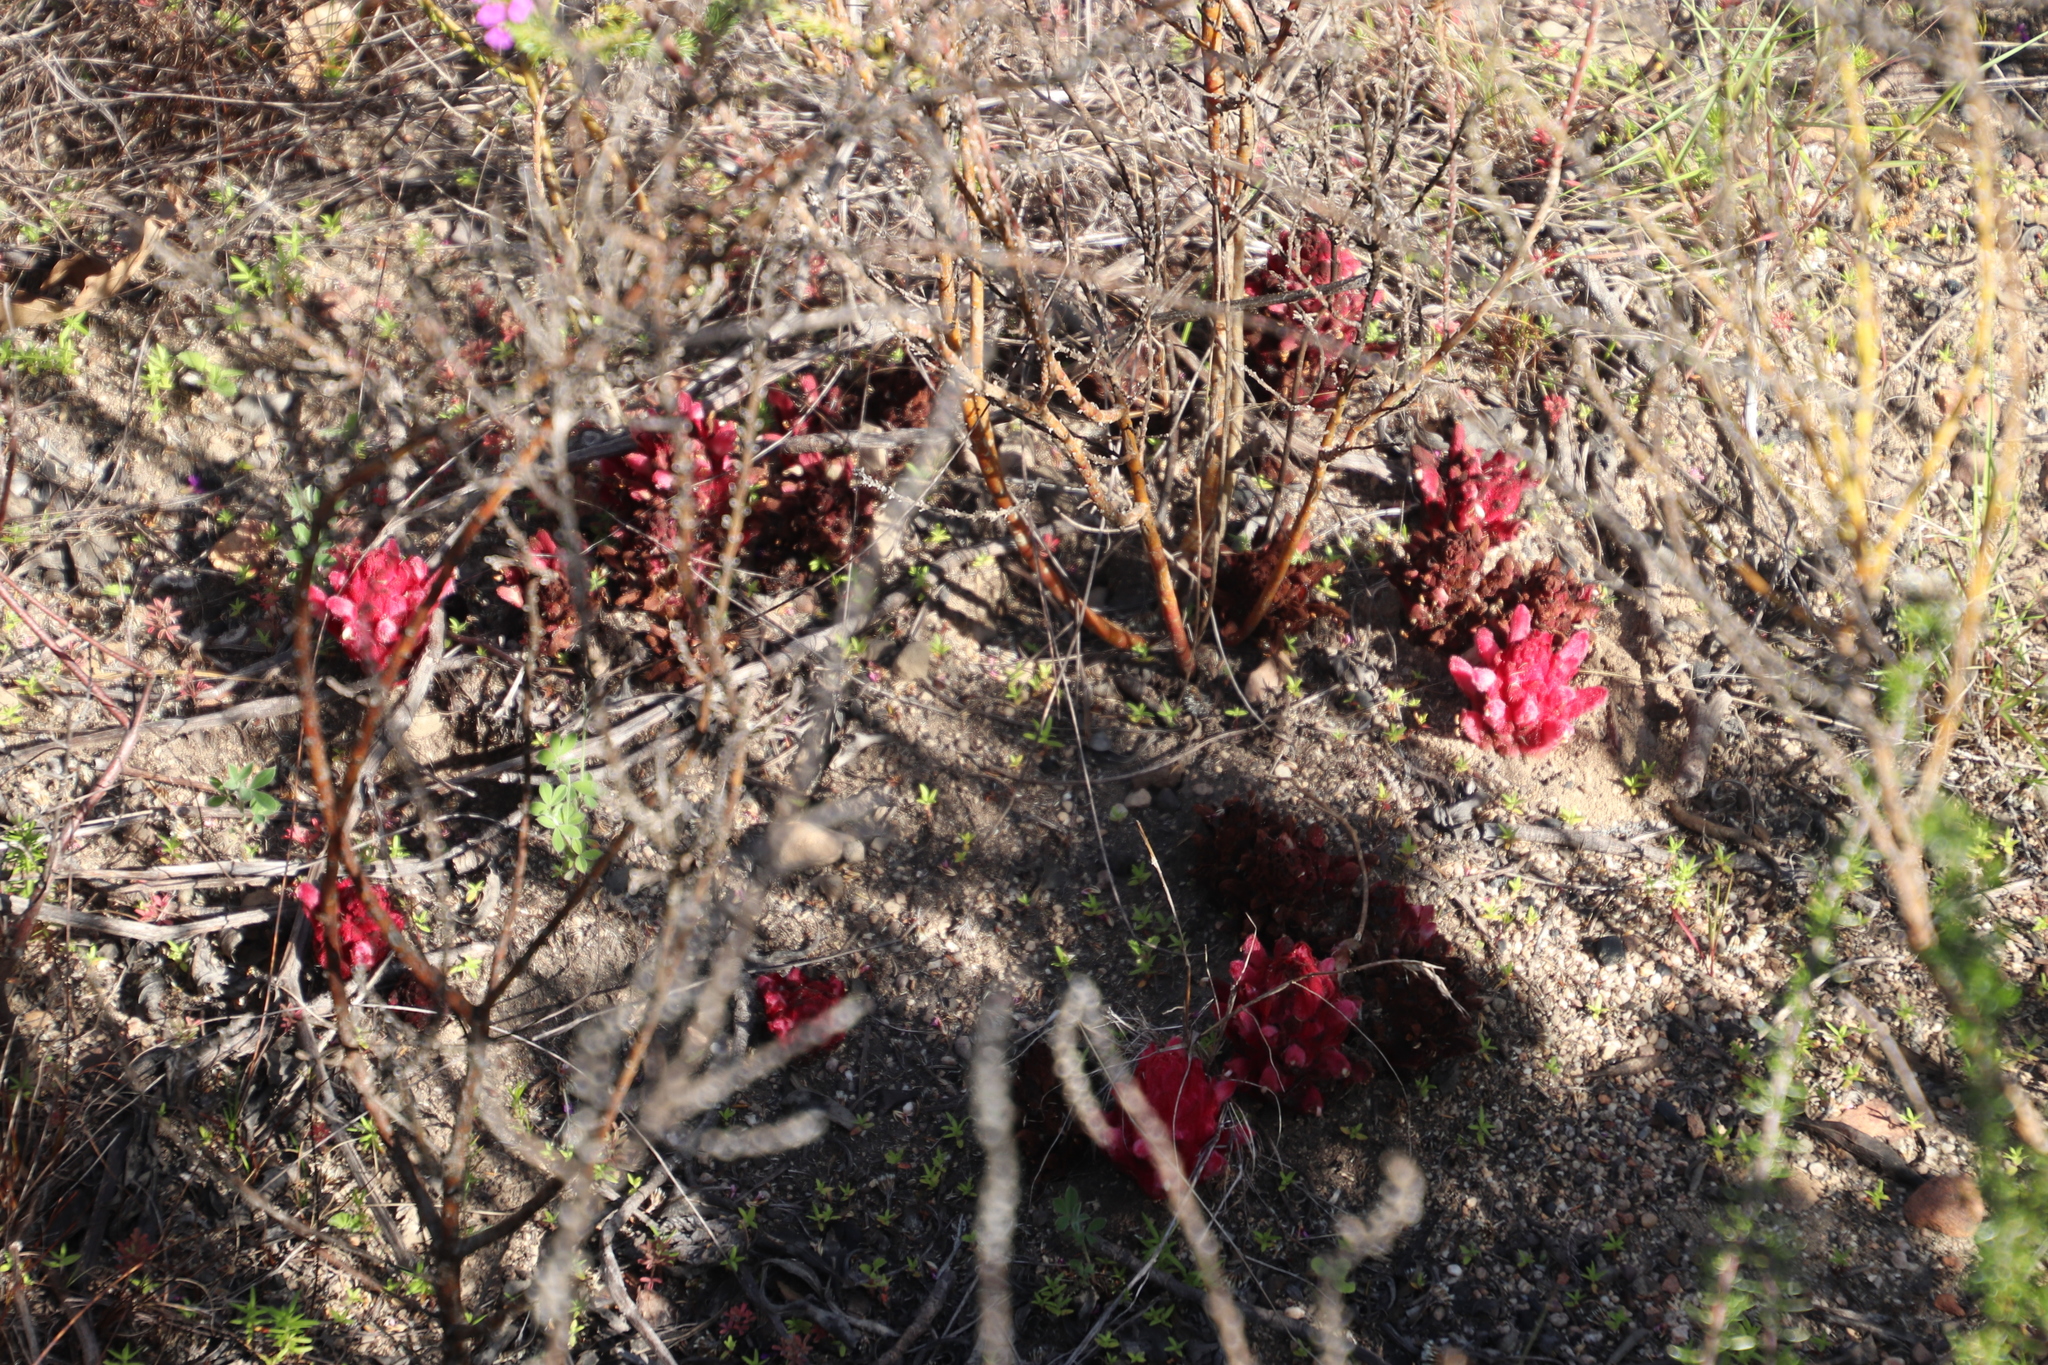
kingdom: Plantae
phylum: Tracheophyta
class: Magnoliopsida
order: Lamiales
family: Orobanchaceae
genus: Hyobanche
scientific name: Hyobanche sanguinea
